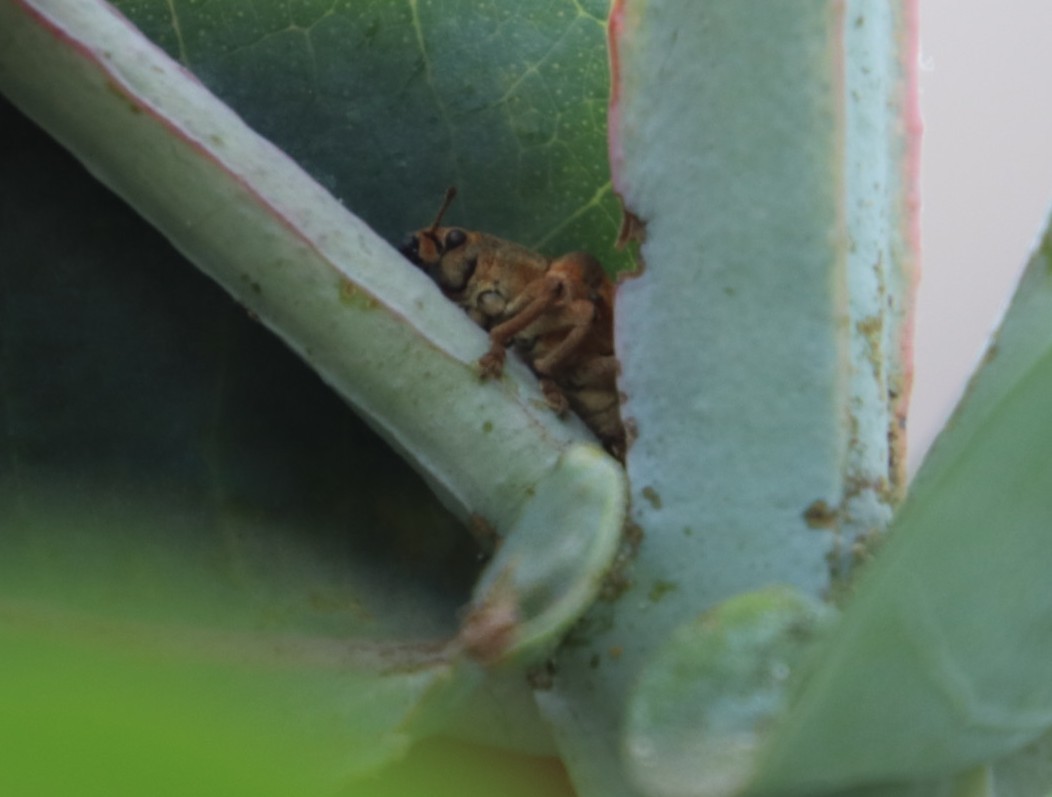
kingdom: Animalia
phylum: Arthropoda
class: Insecta
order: Coleoptera
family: Curculionidae
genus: Gonipterus
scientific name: Gonipterus
